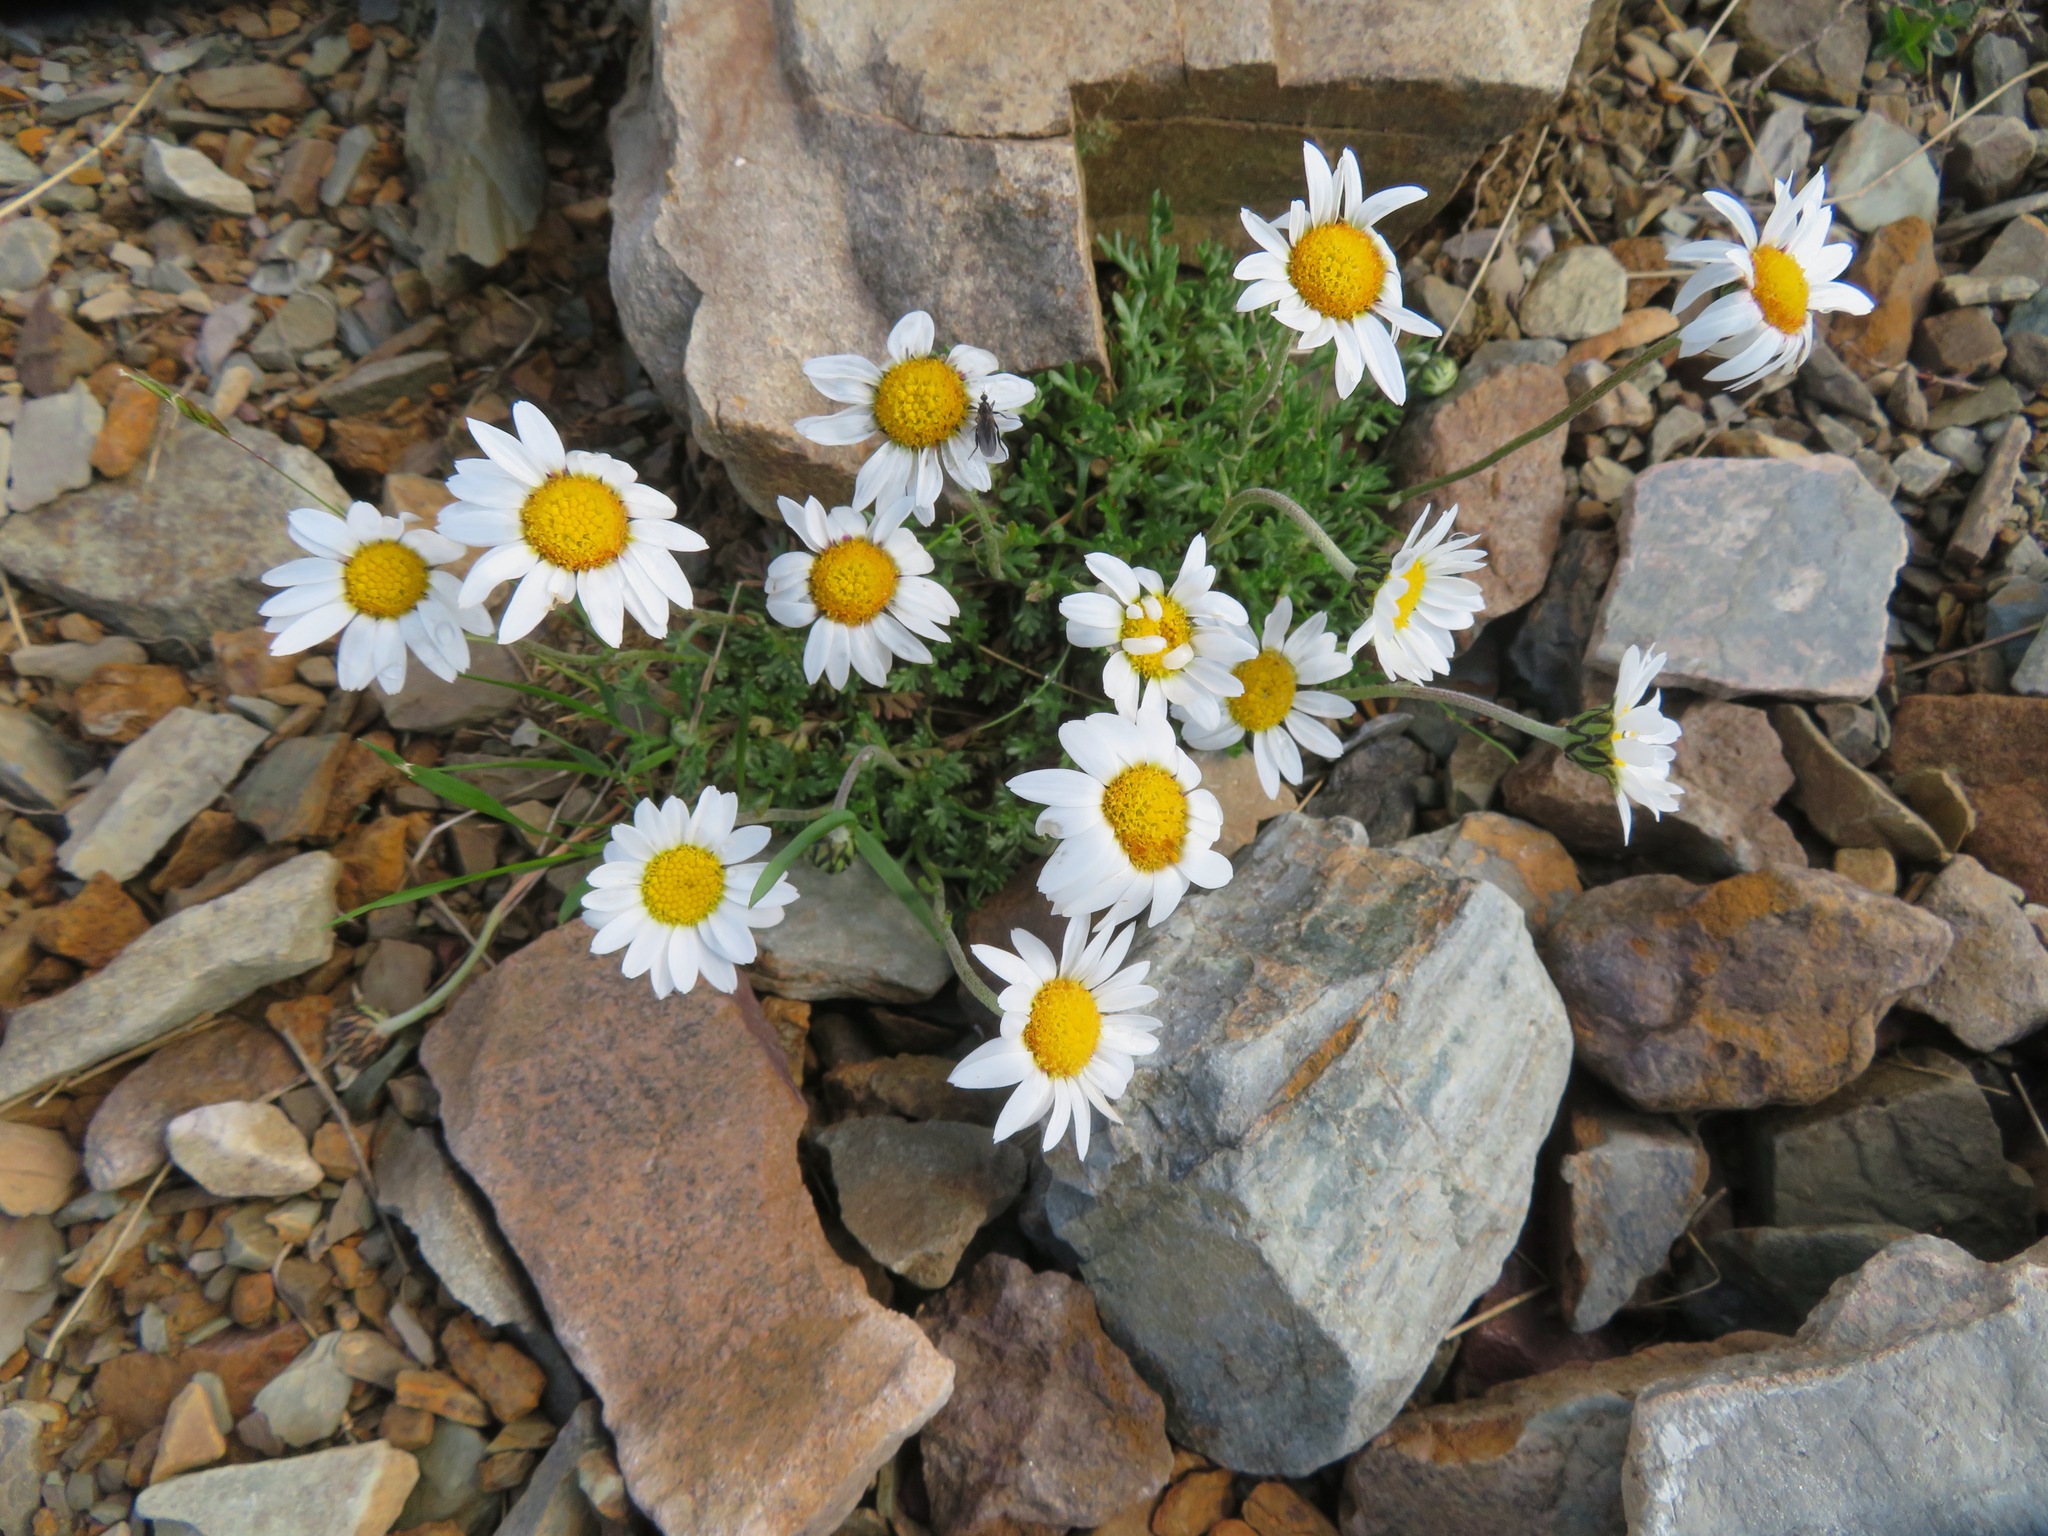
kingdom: Plantae
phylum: Tracheophyta
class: Magnoliopsida
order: Asterales
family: Asteraceae
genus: Leucanthemopsis
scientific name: Leucanthemopsis alpina
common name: Alpine moon daisy
